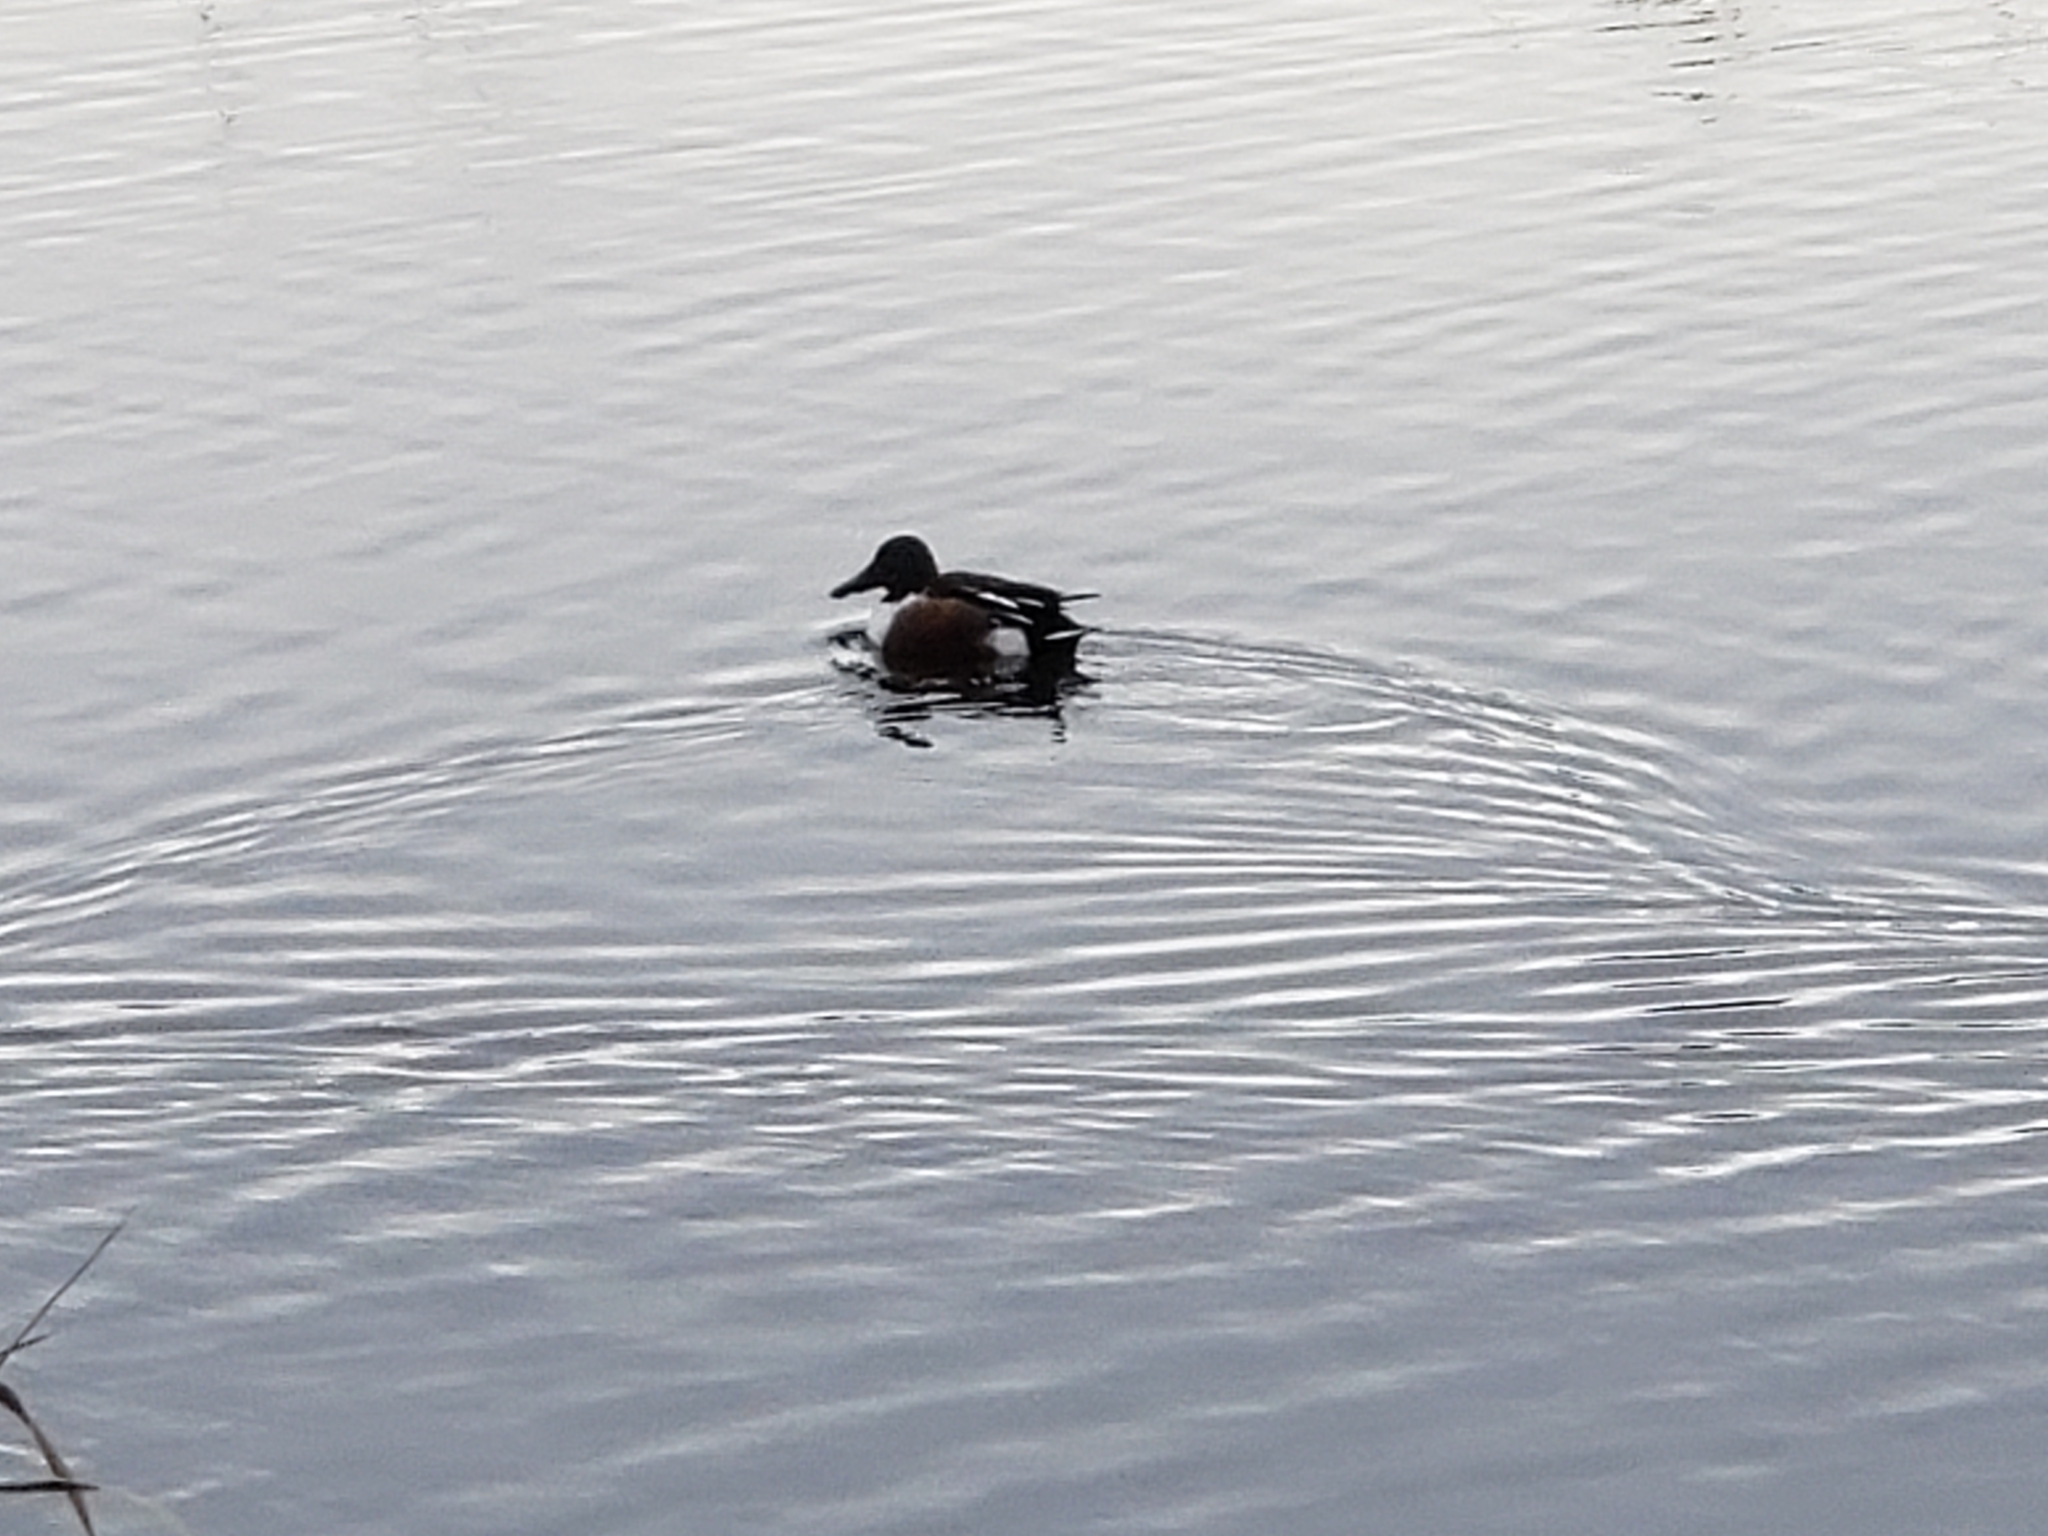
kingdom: Animalia
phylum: Chordata
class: Aves
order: Anseriformes
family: Anatidae
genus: Spatula
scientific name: Spatula clypeata
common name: Northern shoveler
